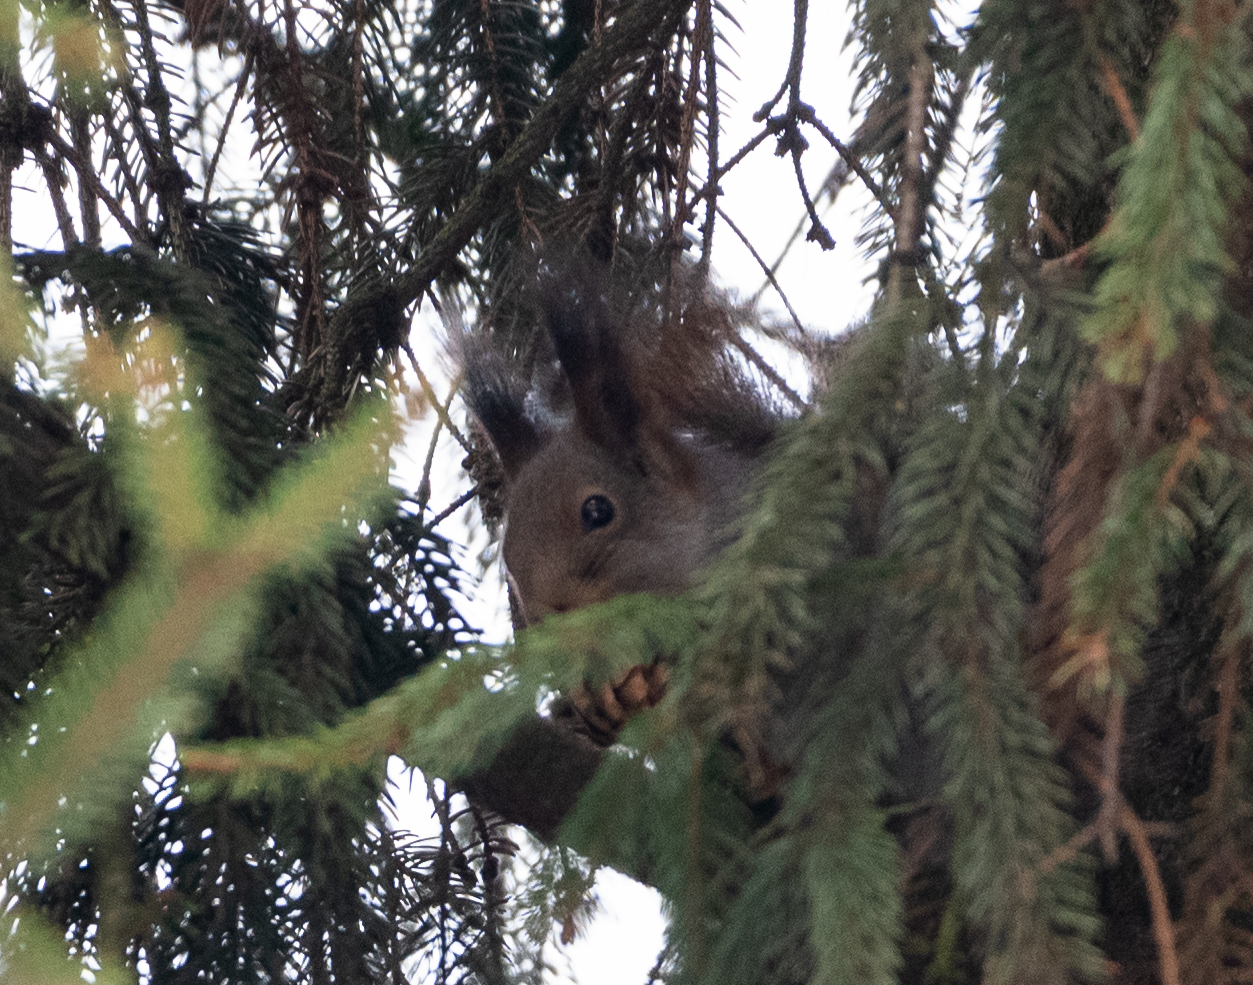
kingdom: Animalia
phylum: Chordata
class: Mammalia
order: Rodentia
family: Sciuridae
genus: Sciurus
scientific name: Sciurus vulgaris
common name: Eurasian red squirrel
